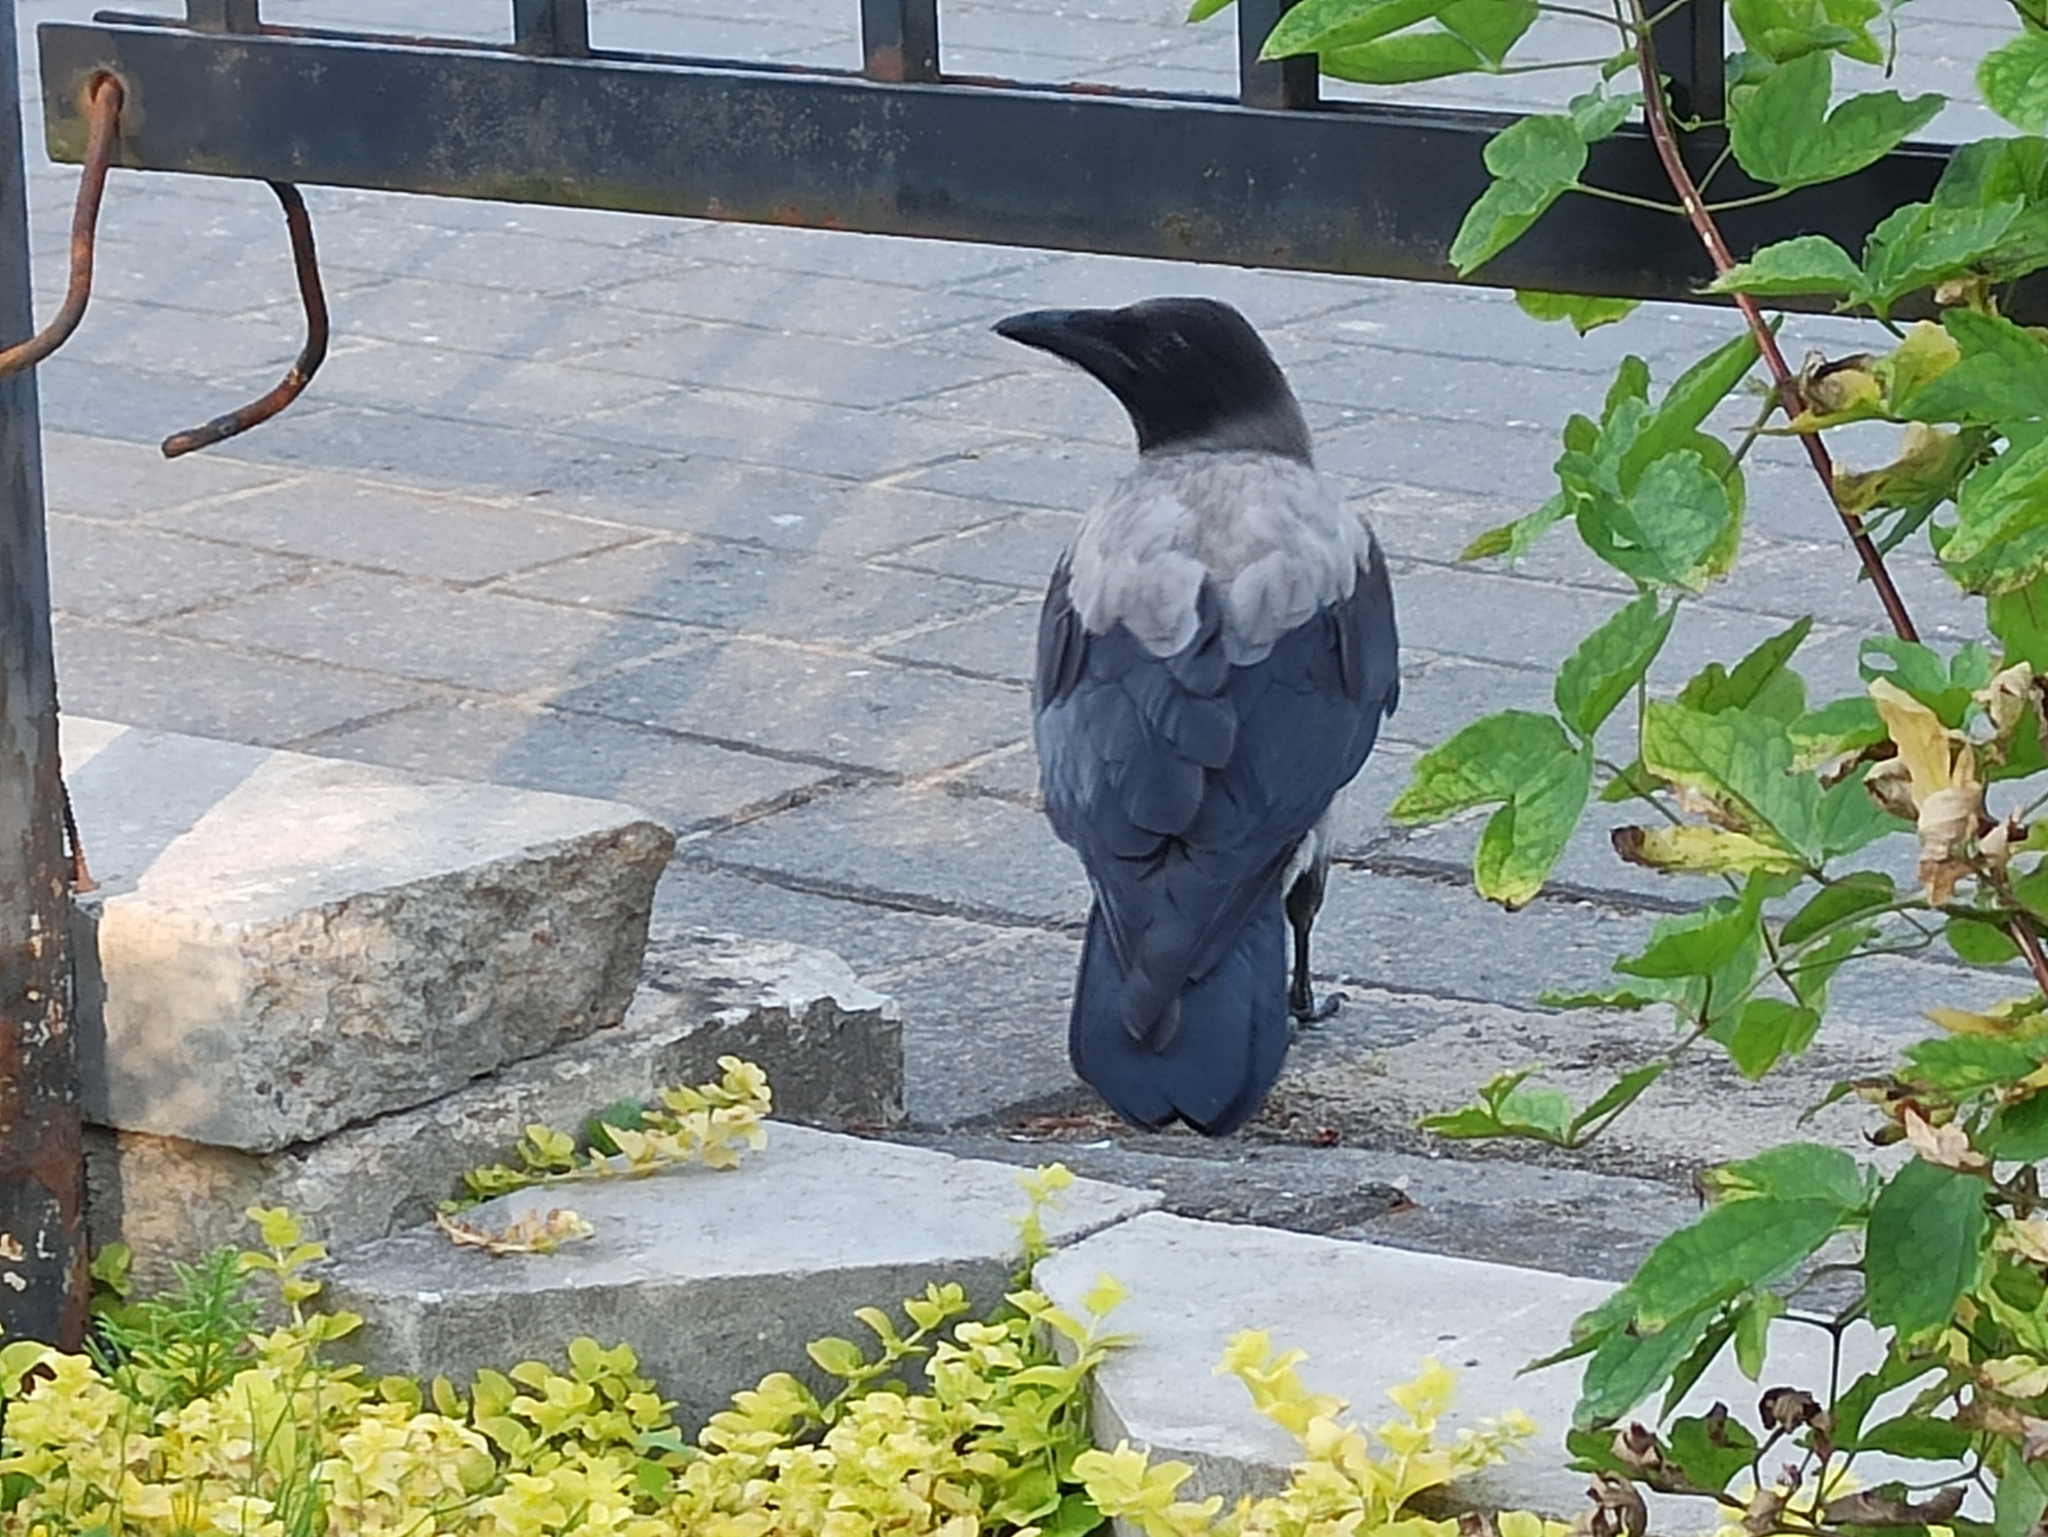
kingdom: Animalia
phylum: Chordata
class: Aves
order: Passeriformes
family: Corvidae
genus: Corvus
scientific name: Corvus cornix
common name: Hooded crow
